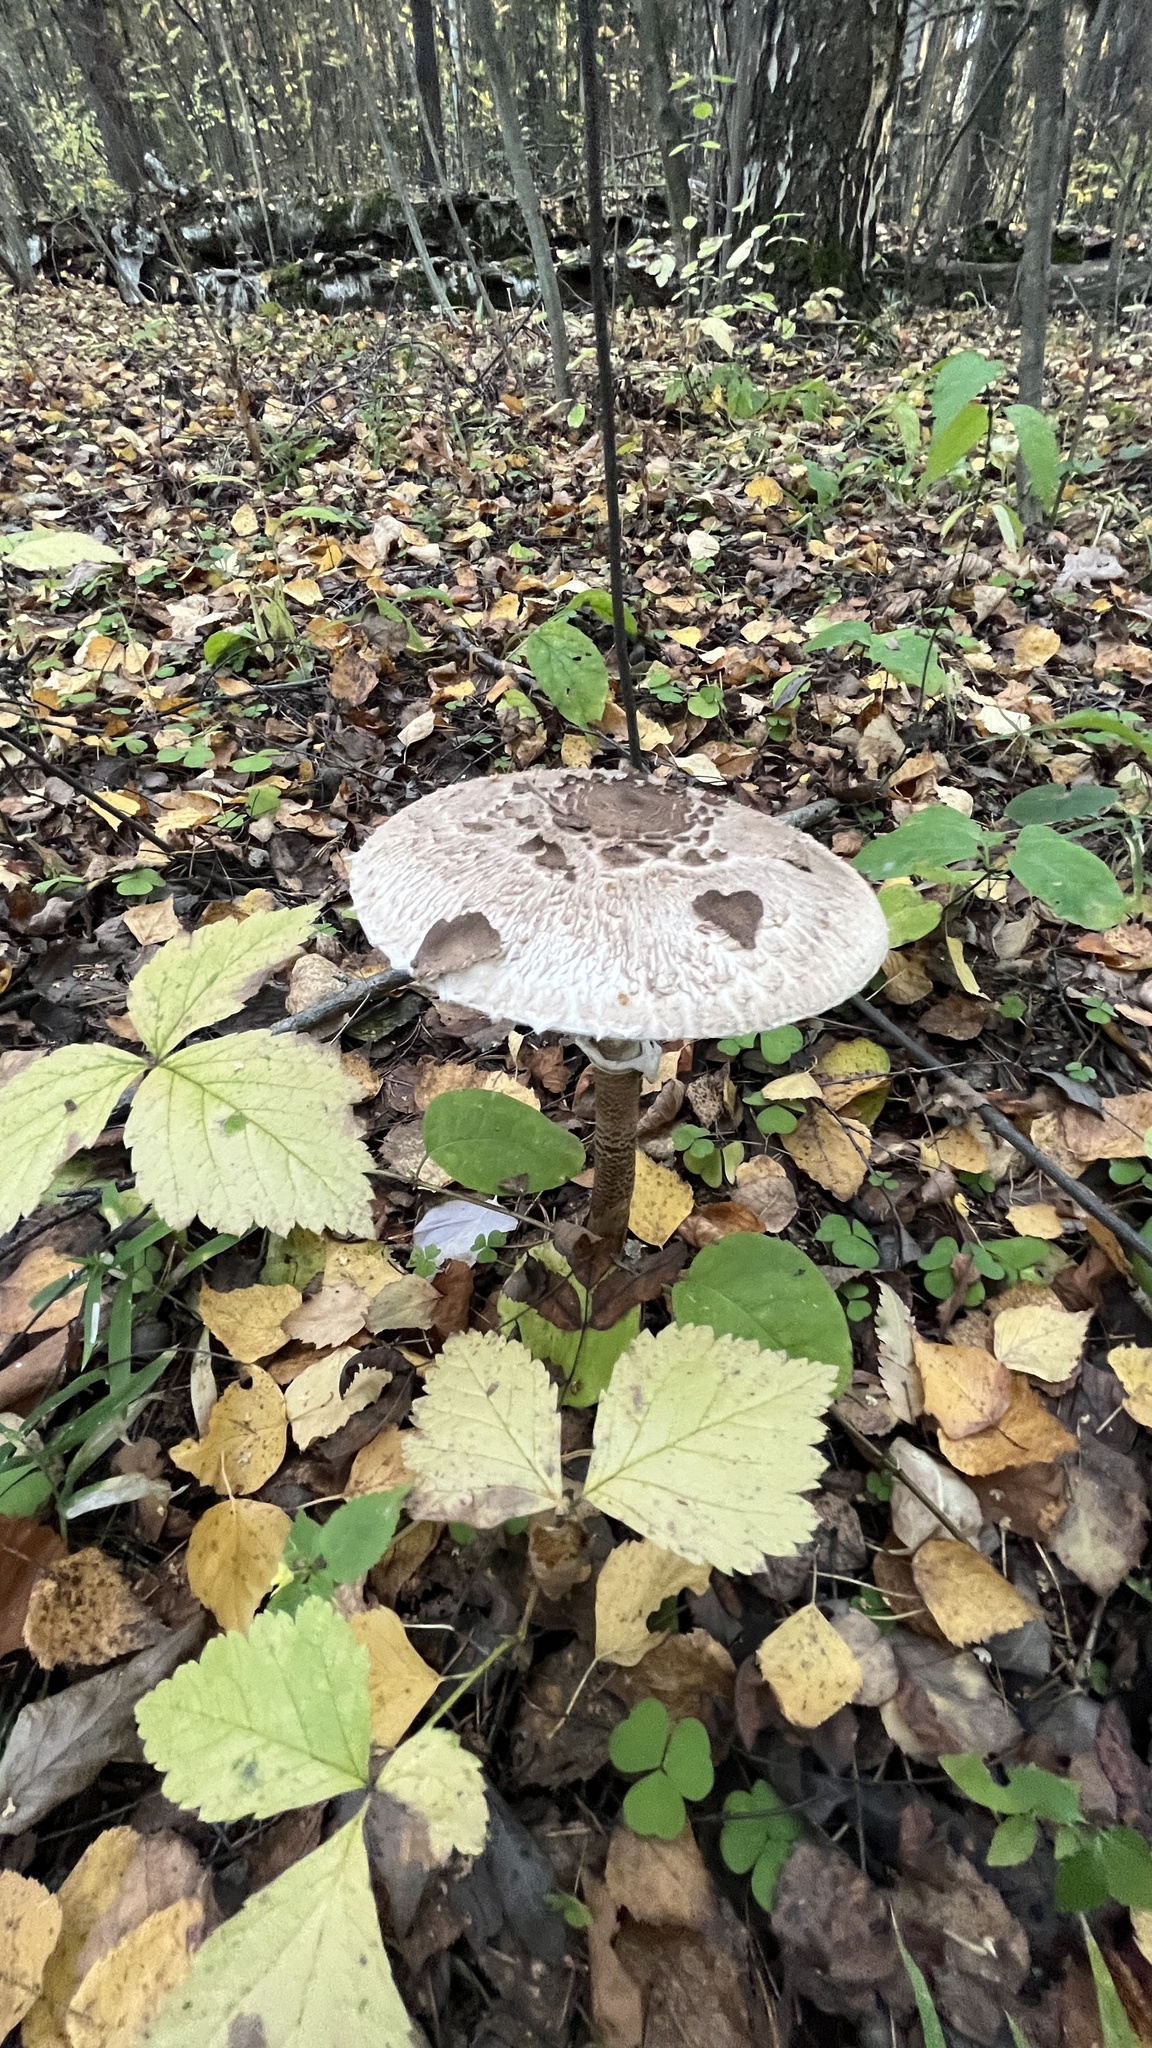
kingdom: Fungi
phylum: Basidiomycota
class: Agaricomycetes
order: Agaricales
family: Agaricaceae
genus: Macrolepiota
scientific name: Macrolepiota procera
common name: Parasol
